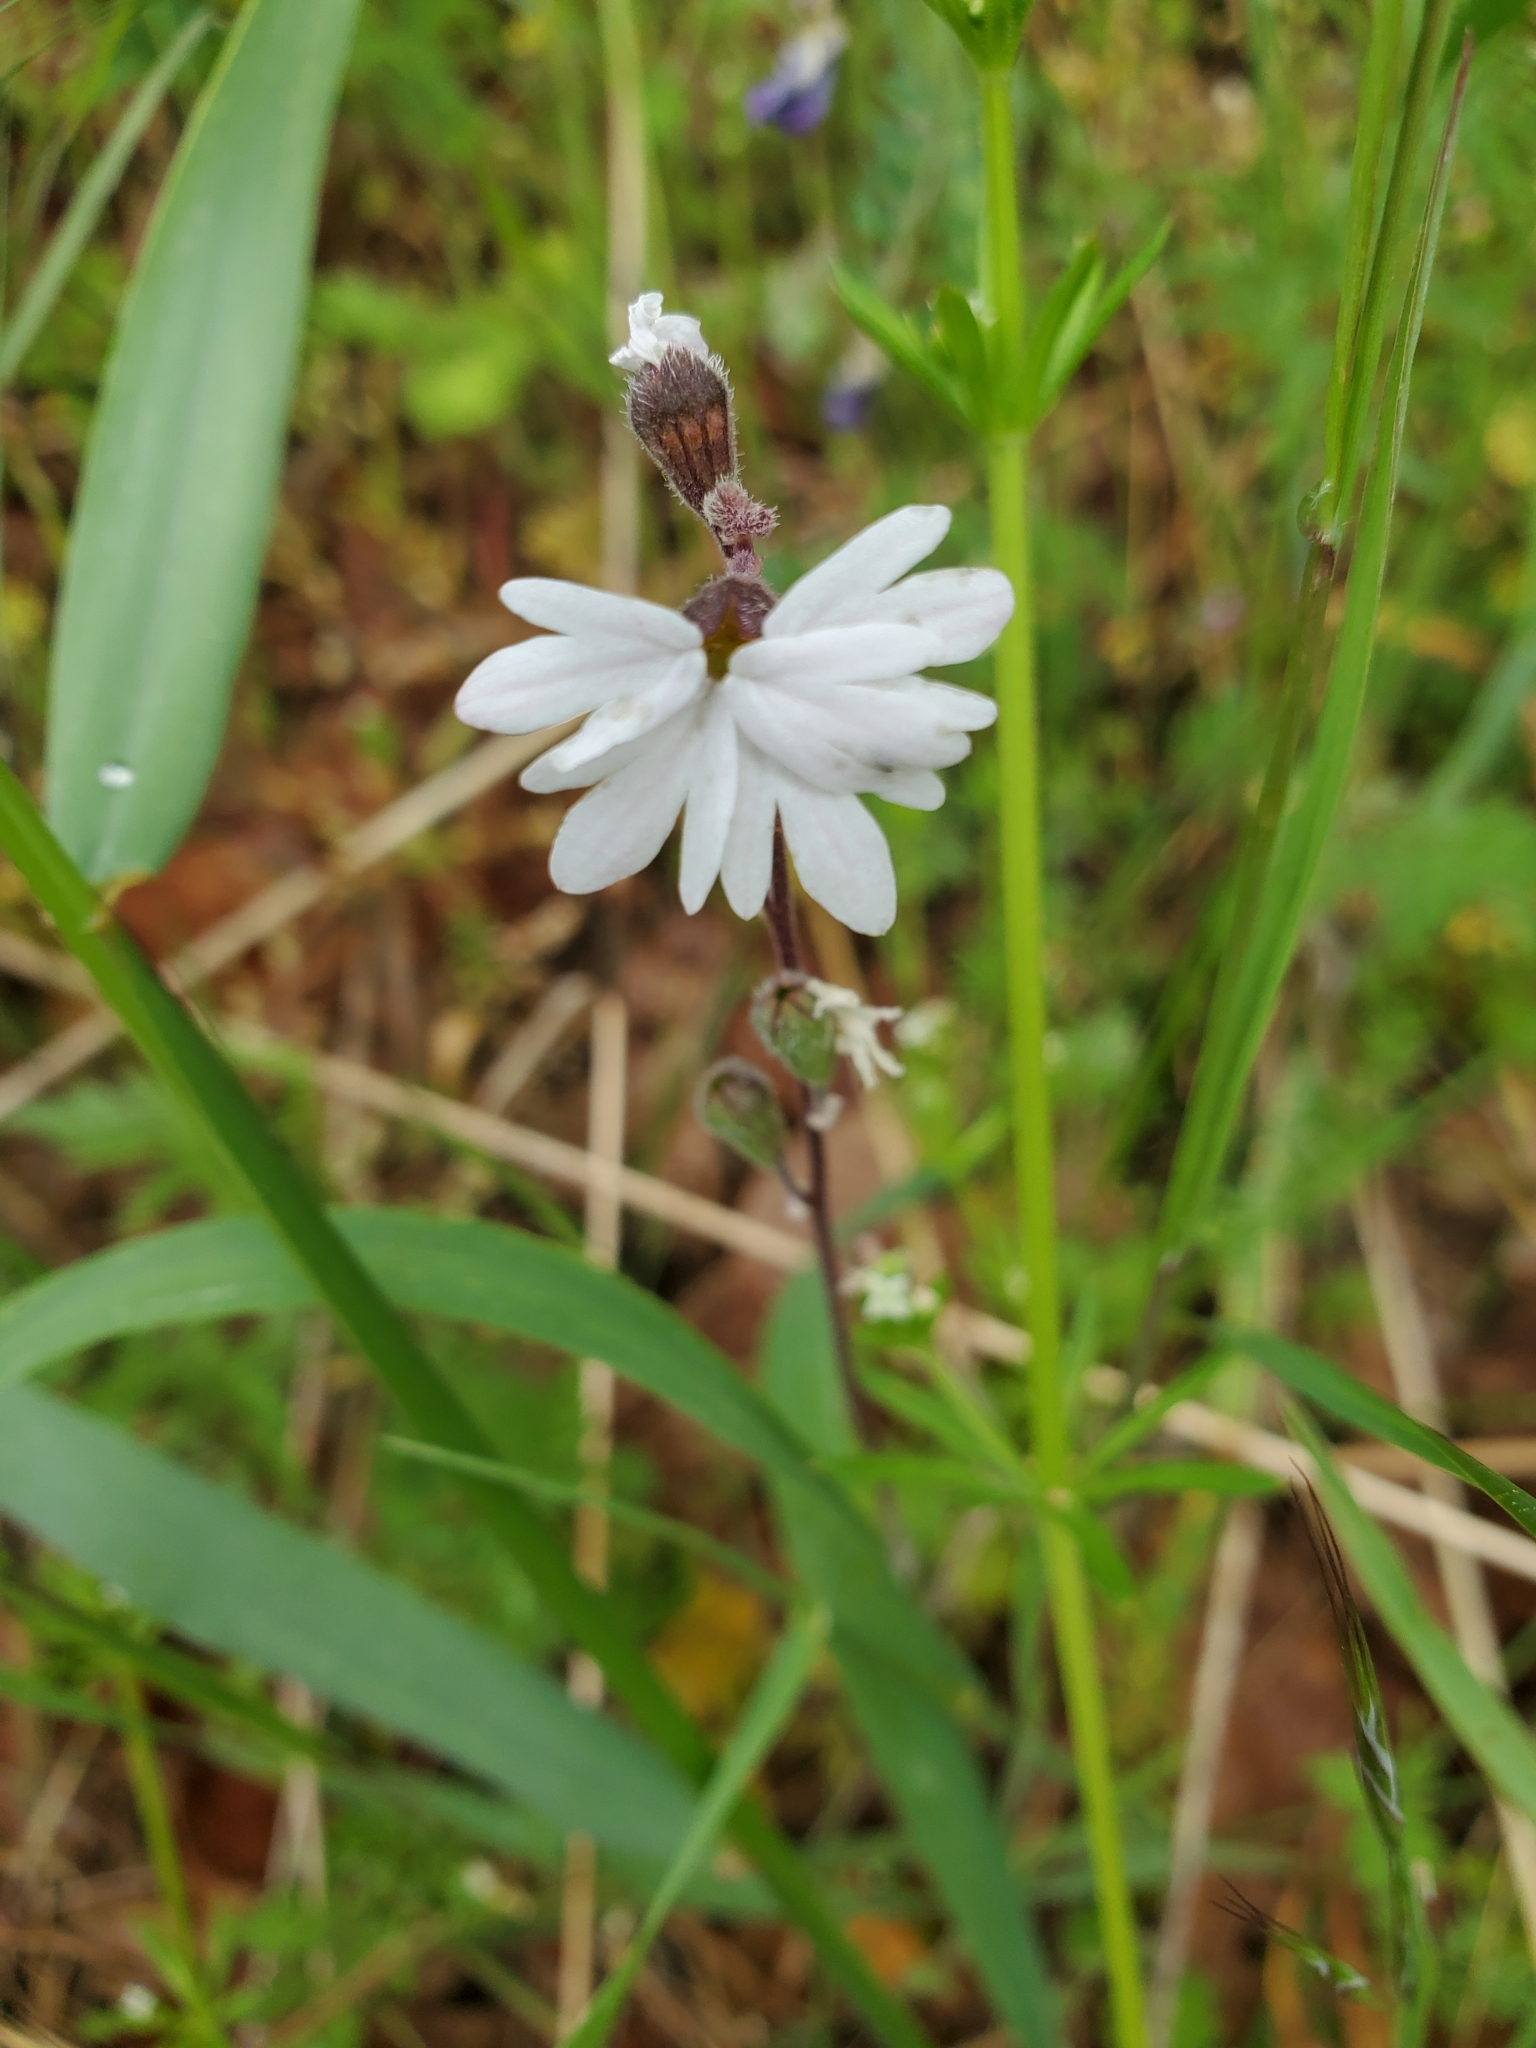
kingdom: Plantae
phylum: Tracheophyta
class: Magnoliopsida
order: Saxifragales
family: Saxifragaceae
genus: Lithophragma
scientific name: Lithophragma parviflorum
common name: Small-flowered fringe-cup
